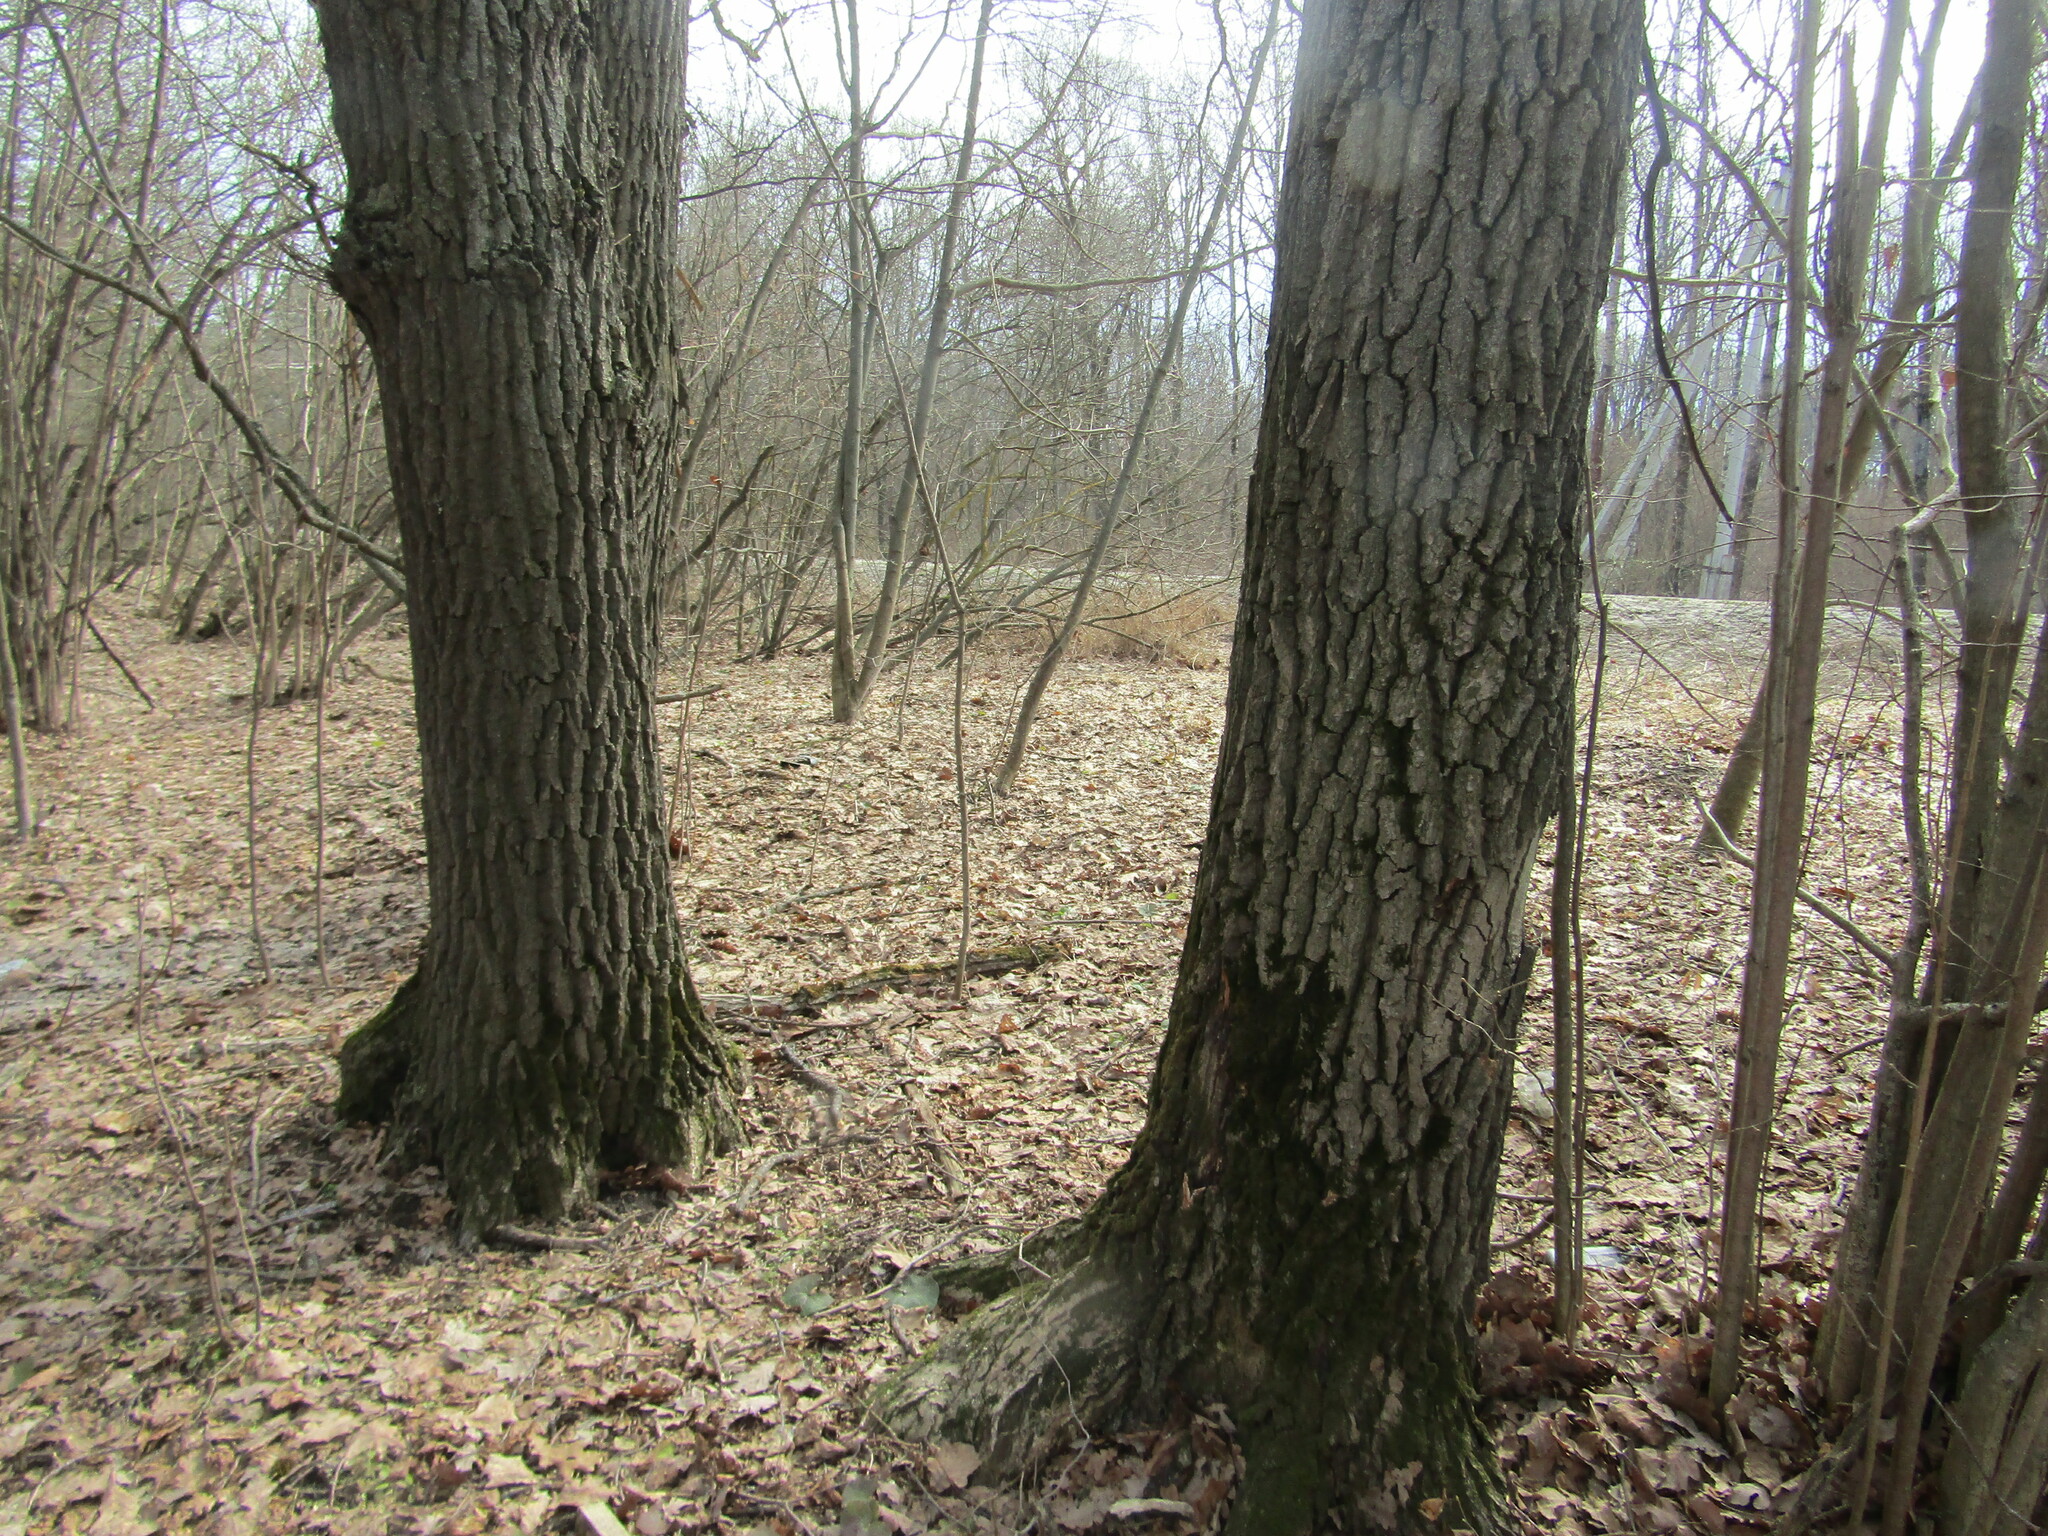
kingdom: Plantae
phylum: Tracheophyta
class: Magnoliopsida
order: Fagales
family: Fagaceae
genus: Quercus
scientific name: Quercus robur
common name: Pedunculate oak
